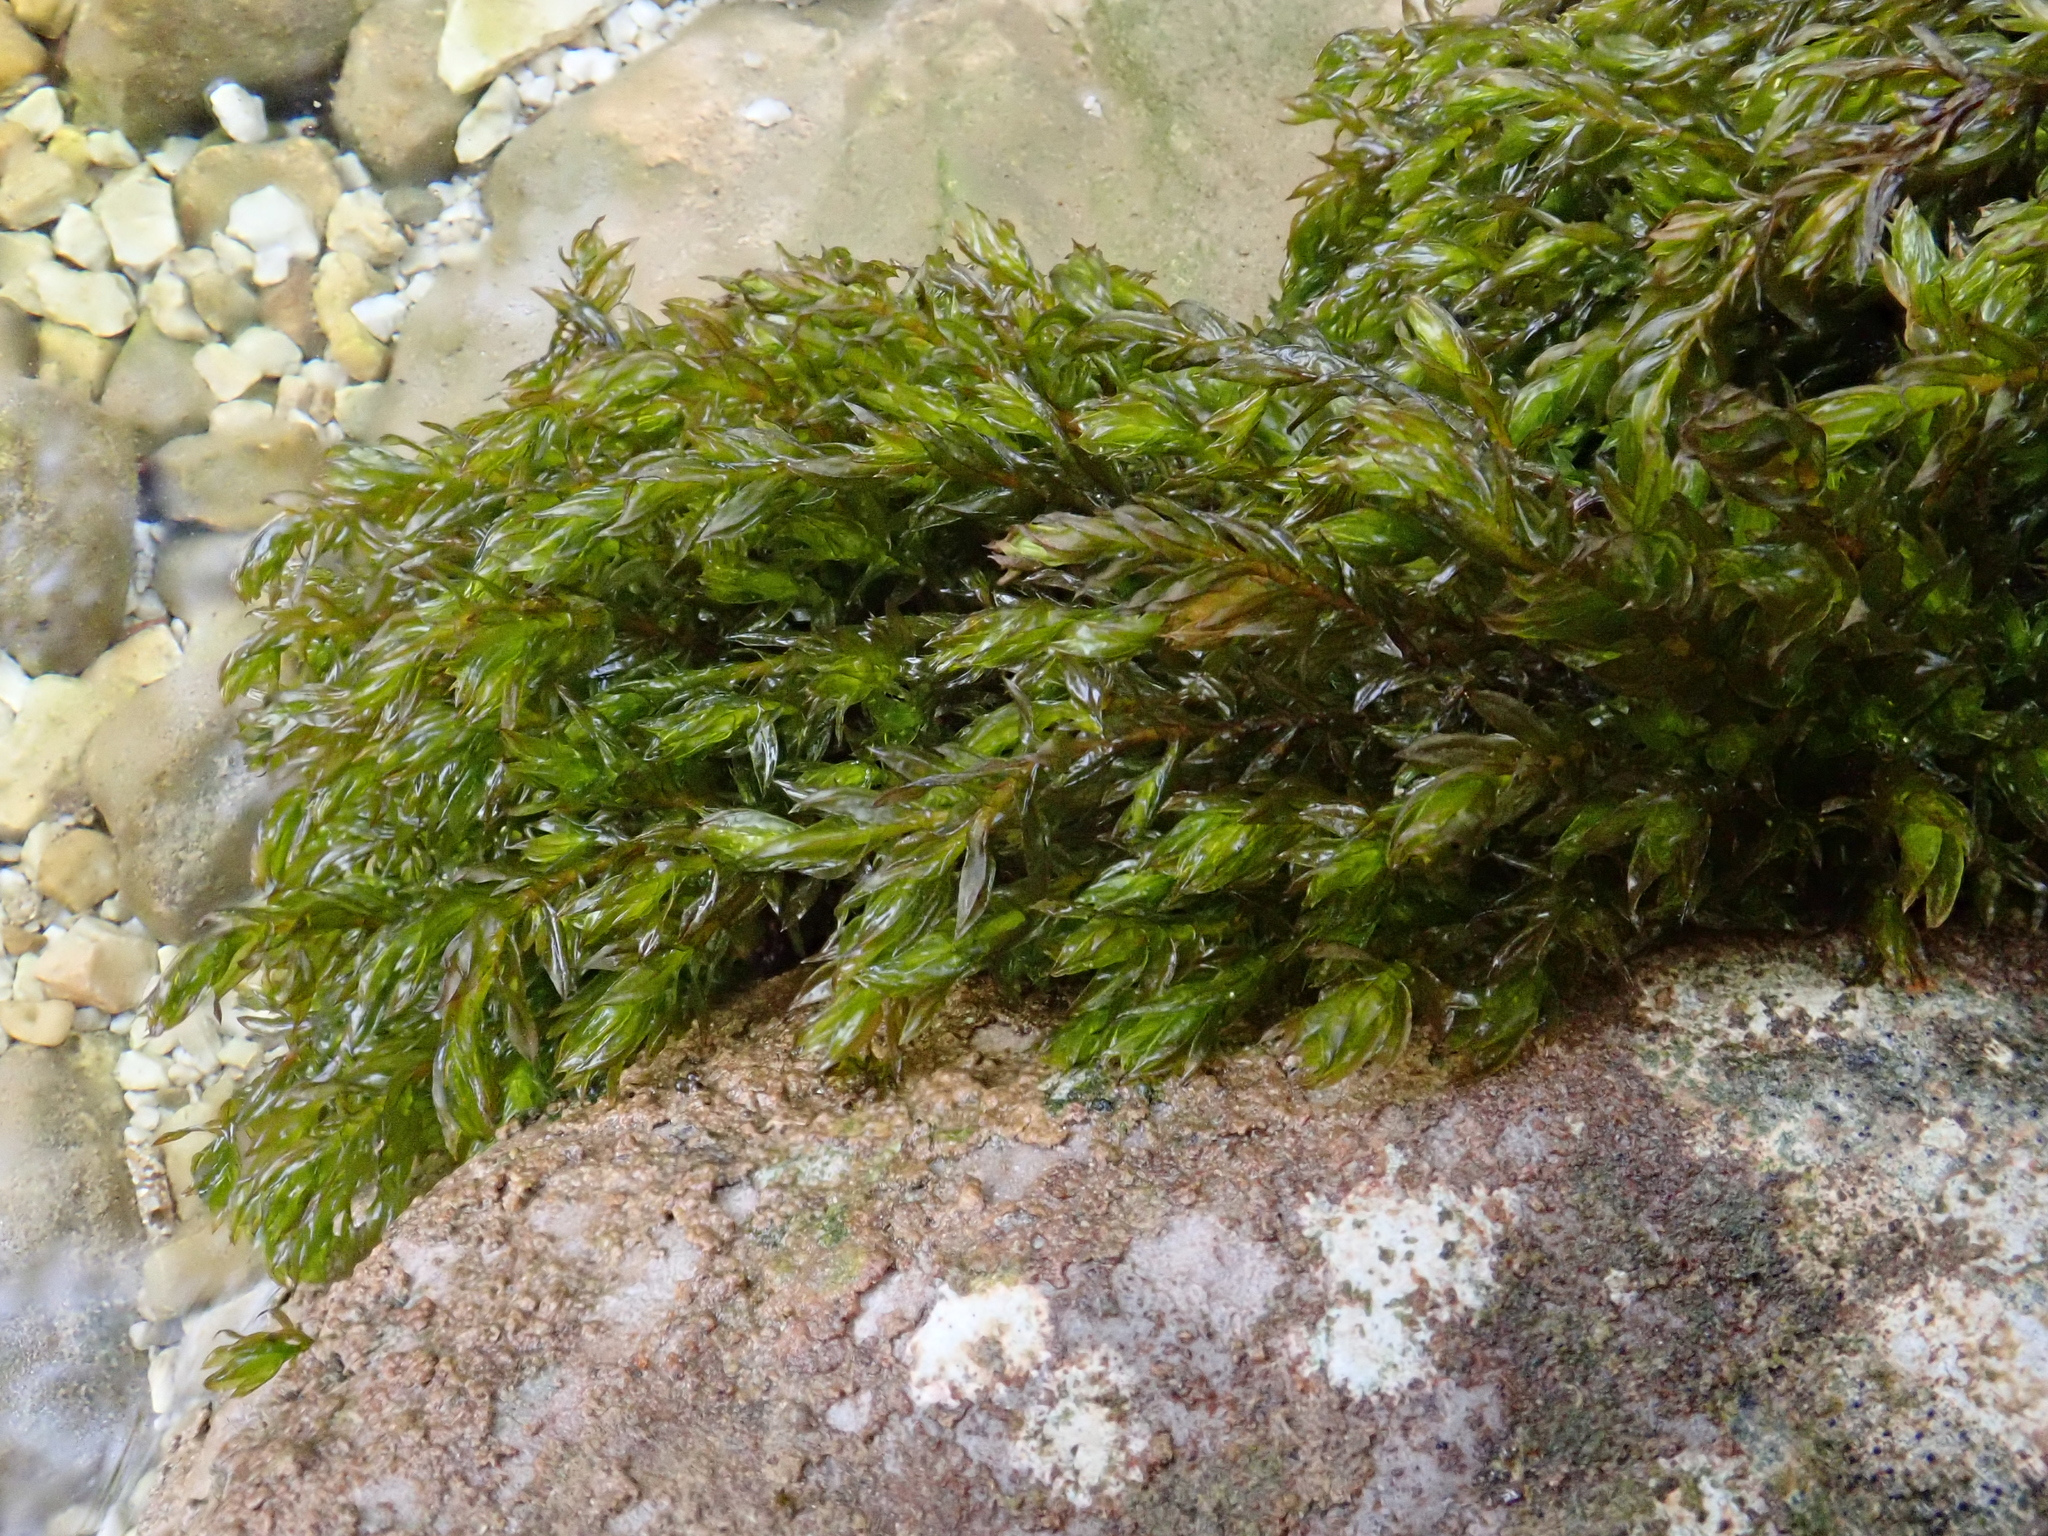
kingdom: Plantae
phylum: Bryophyta
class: Bryopsida
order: Pottiales
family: Pottiaceae
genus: Cinclidotus
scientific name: Cinclidotus fontinaloides
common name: Smaller lattice-moss
